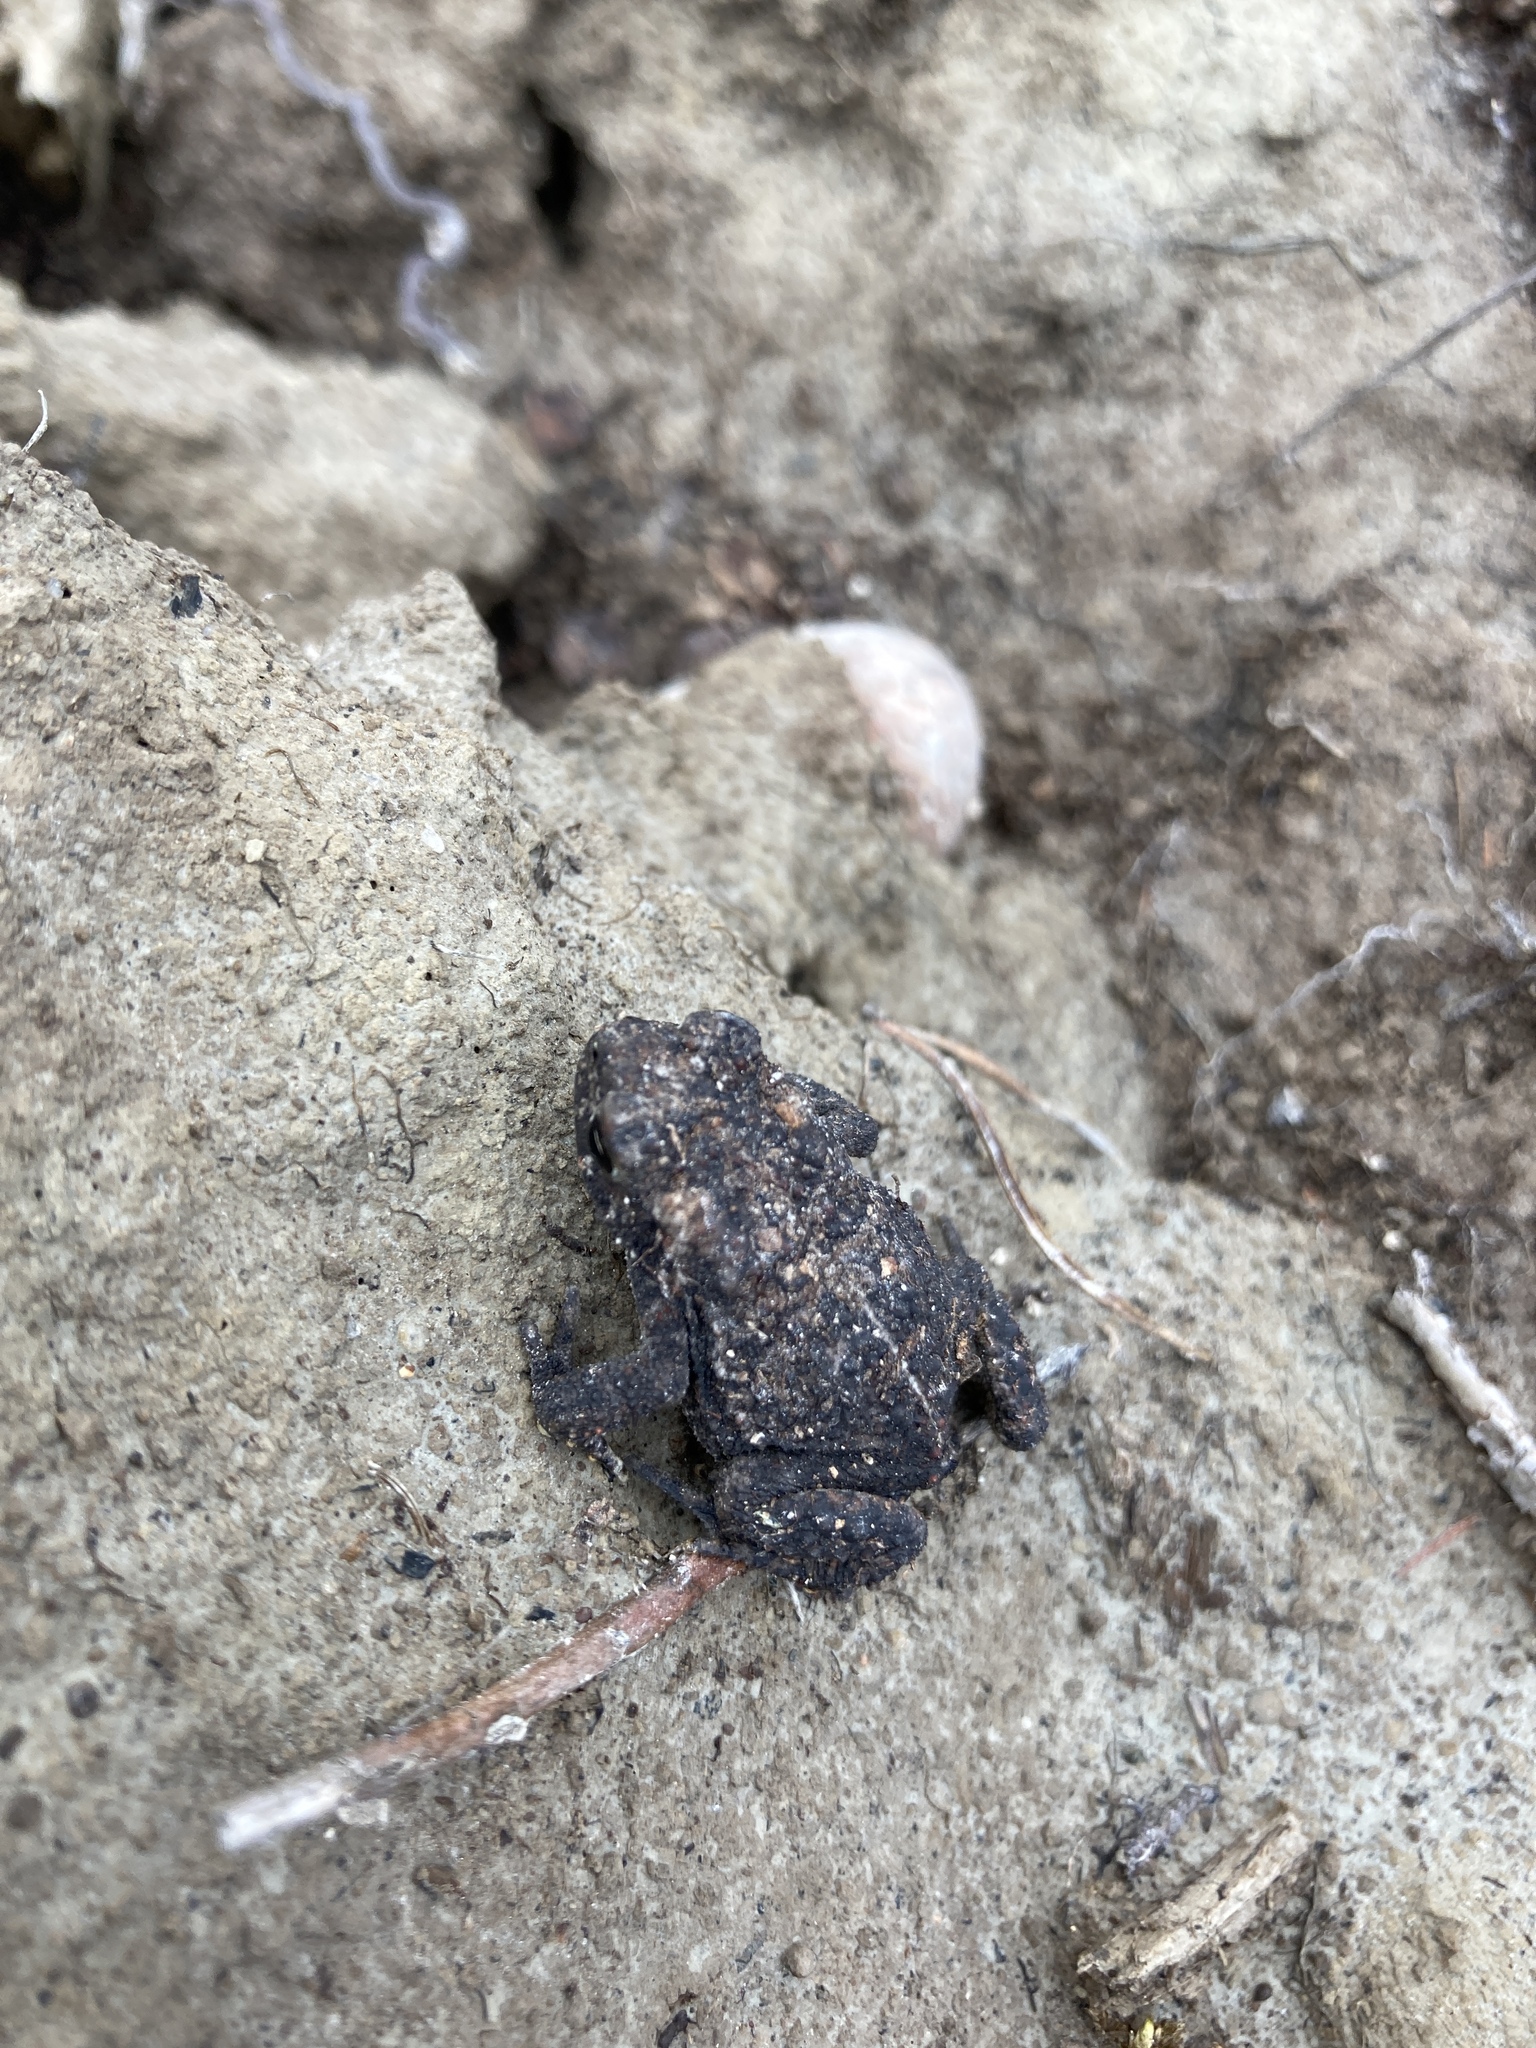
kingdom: Animalia
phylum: Chordata
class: Amphibia
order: Anura
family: Bufonidae
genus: Anaxyrus
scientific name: Anaxyrus americanus
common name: American toad
